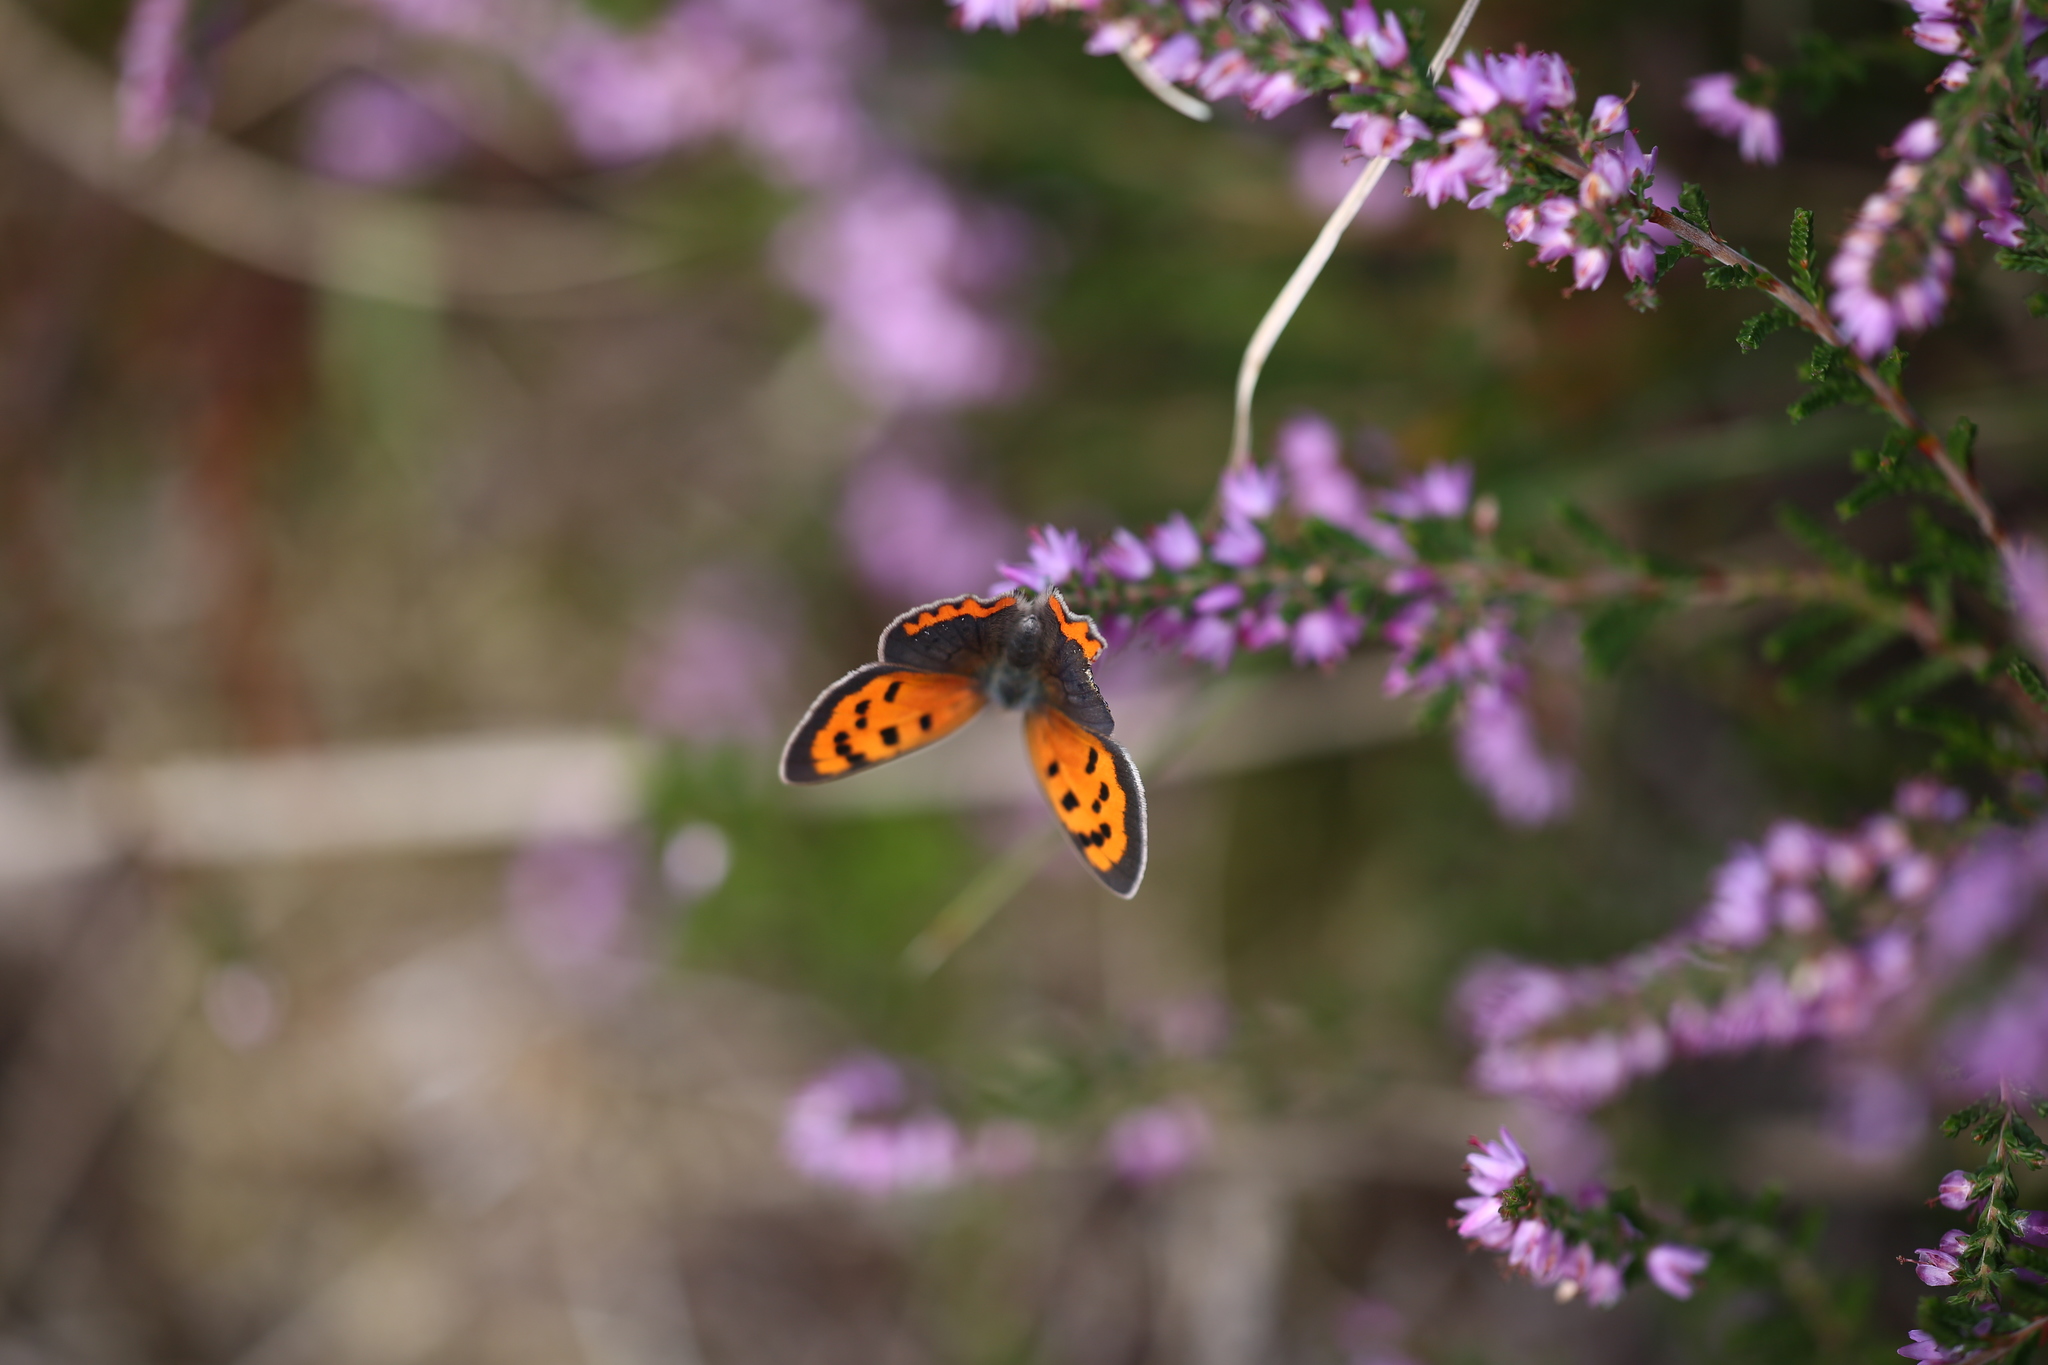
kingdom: Animalia
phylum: Arthropoda
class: Insecta
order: Lepidoptera
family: Lycaenidae
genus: Lycaena
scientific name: Lycaena phlaeas
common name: Small copper
